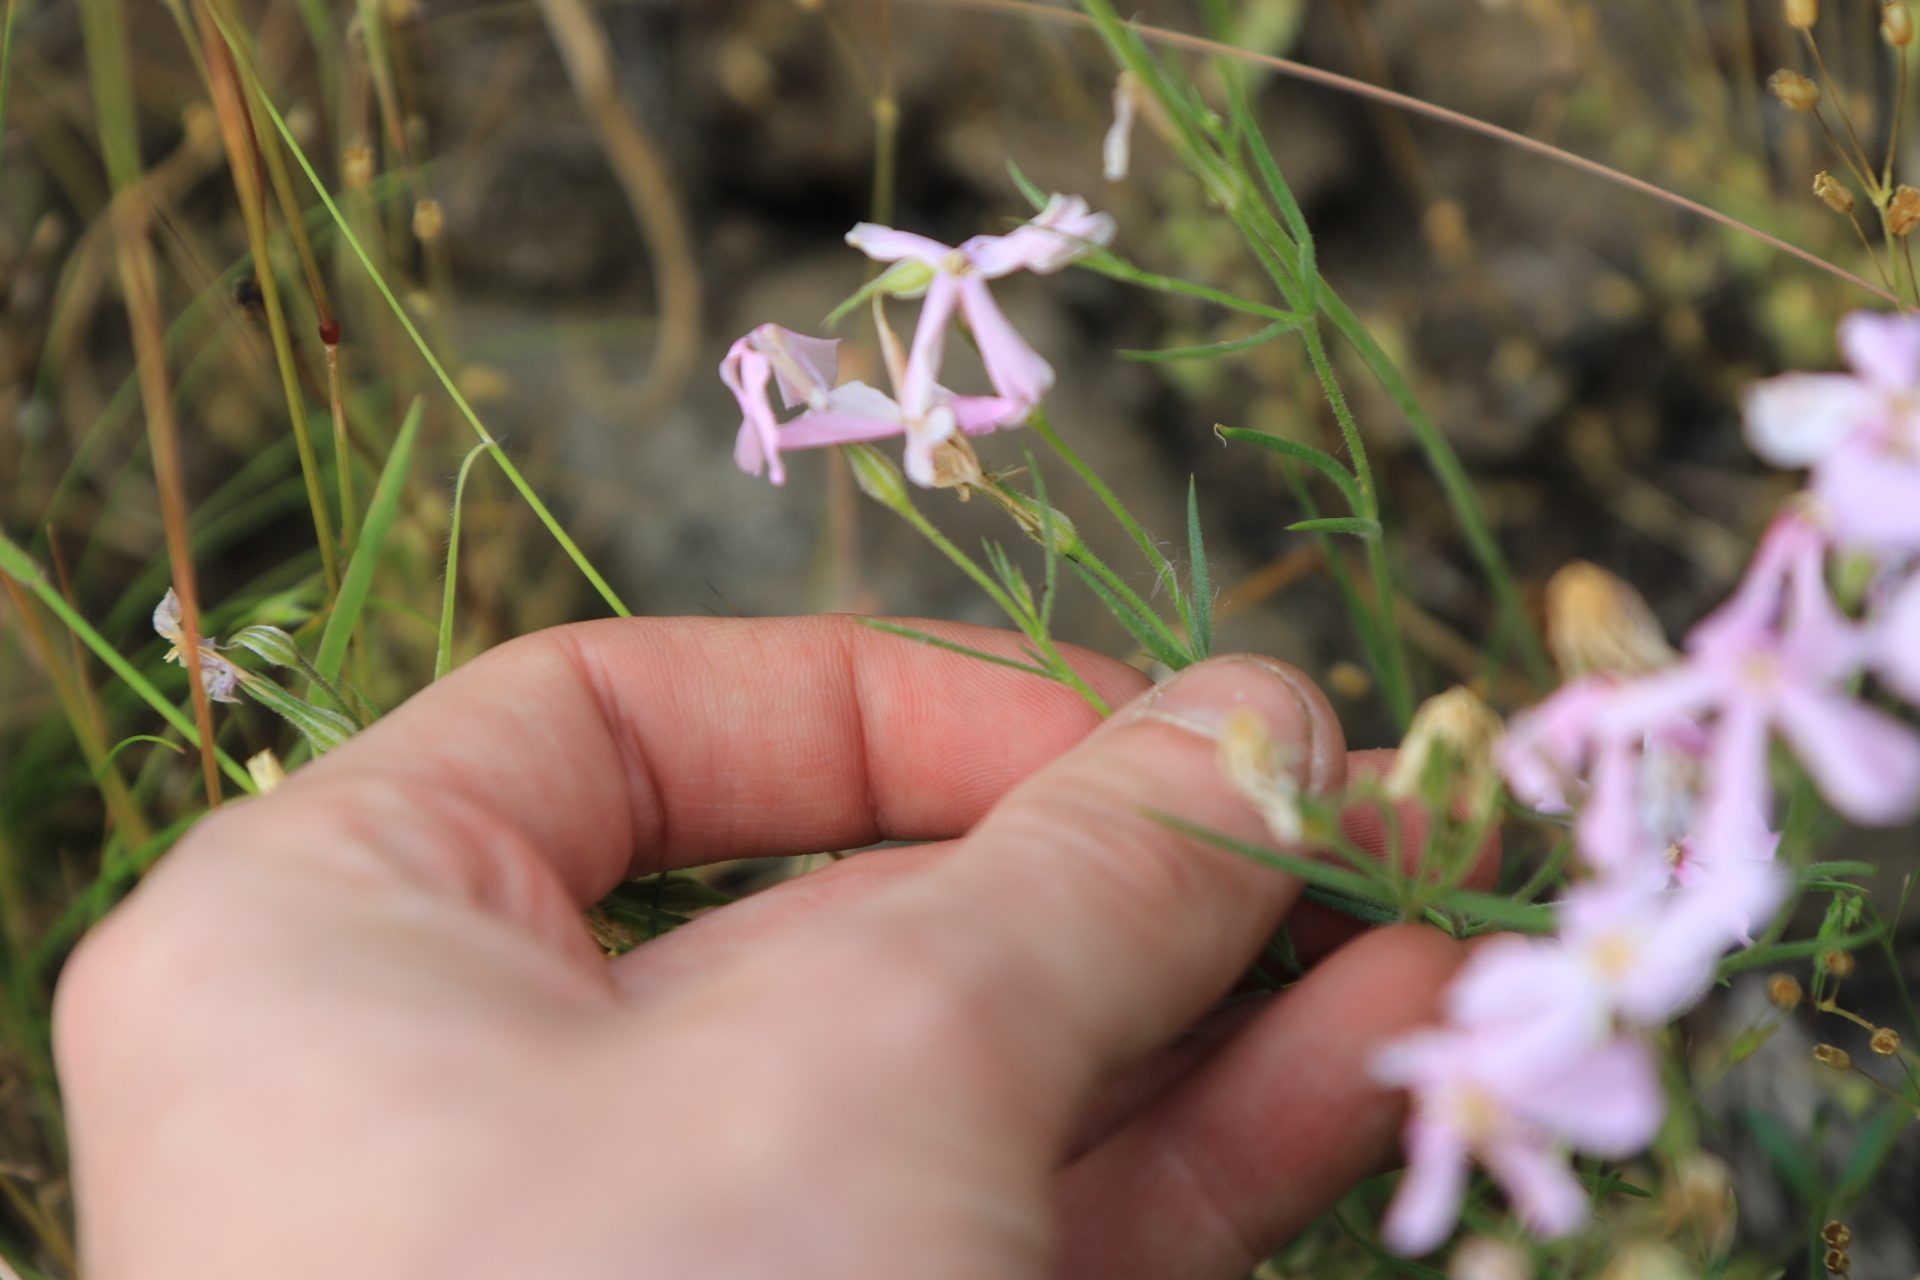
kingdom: Plantae
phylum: Tracheophyta
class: Magnoliopsida
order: Ericales
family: Polemoniaceae
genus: Phlox
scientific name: Phlox longifolia
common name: Longleaf phlox
